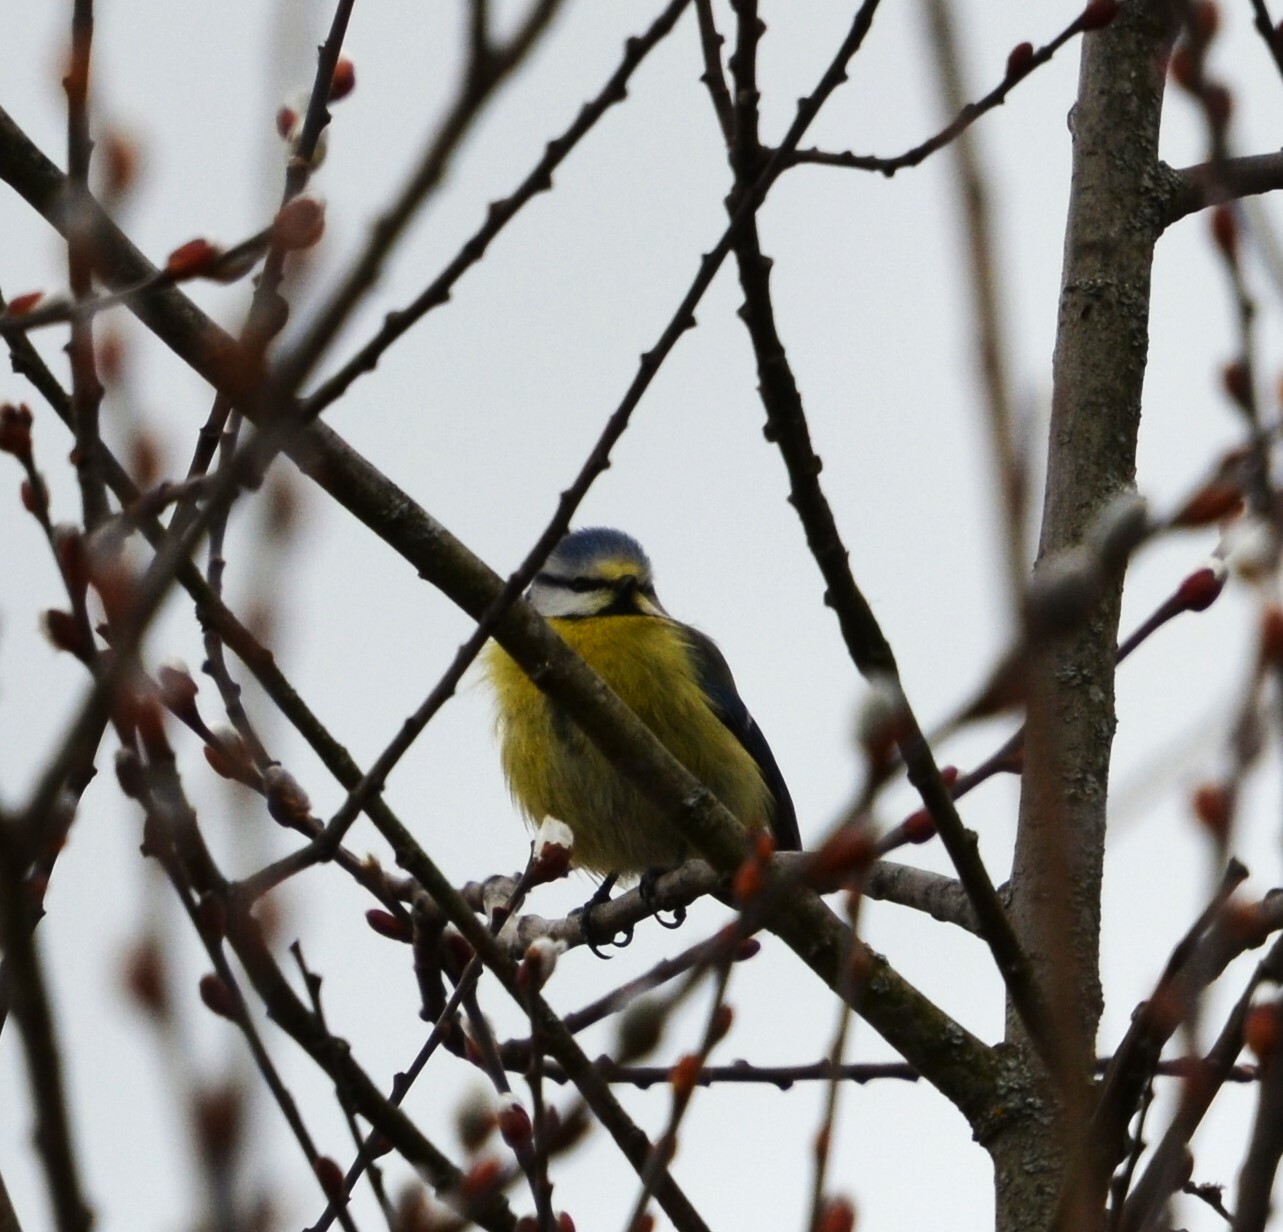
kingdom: Animalia
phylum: Chordata
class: Aves
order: Passeriformes
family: Paridae
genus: Cyanistes
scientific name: Cyanistes caeruleus
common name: Eurasian blue tit
